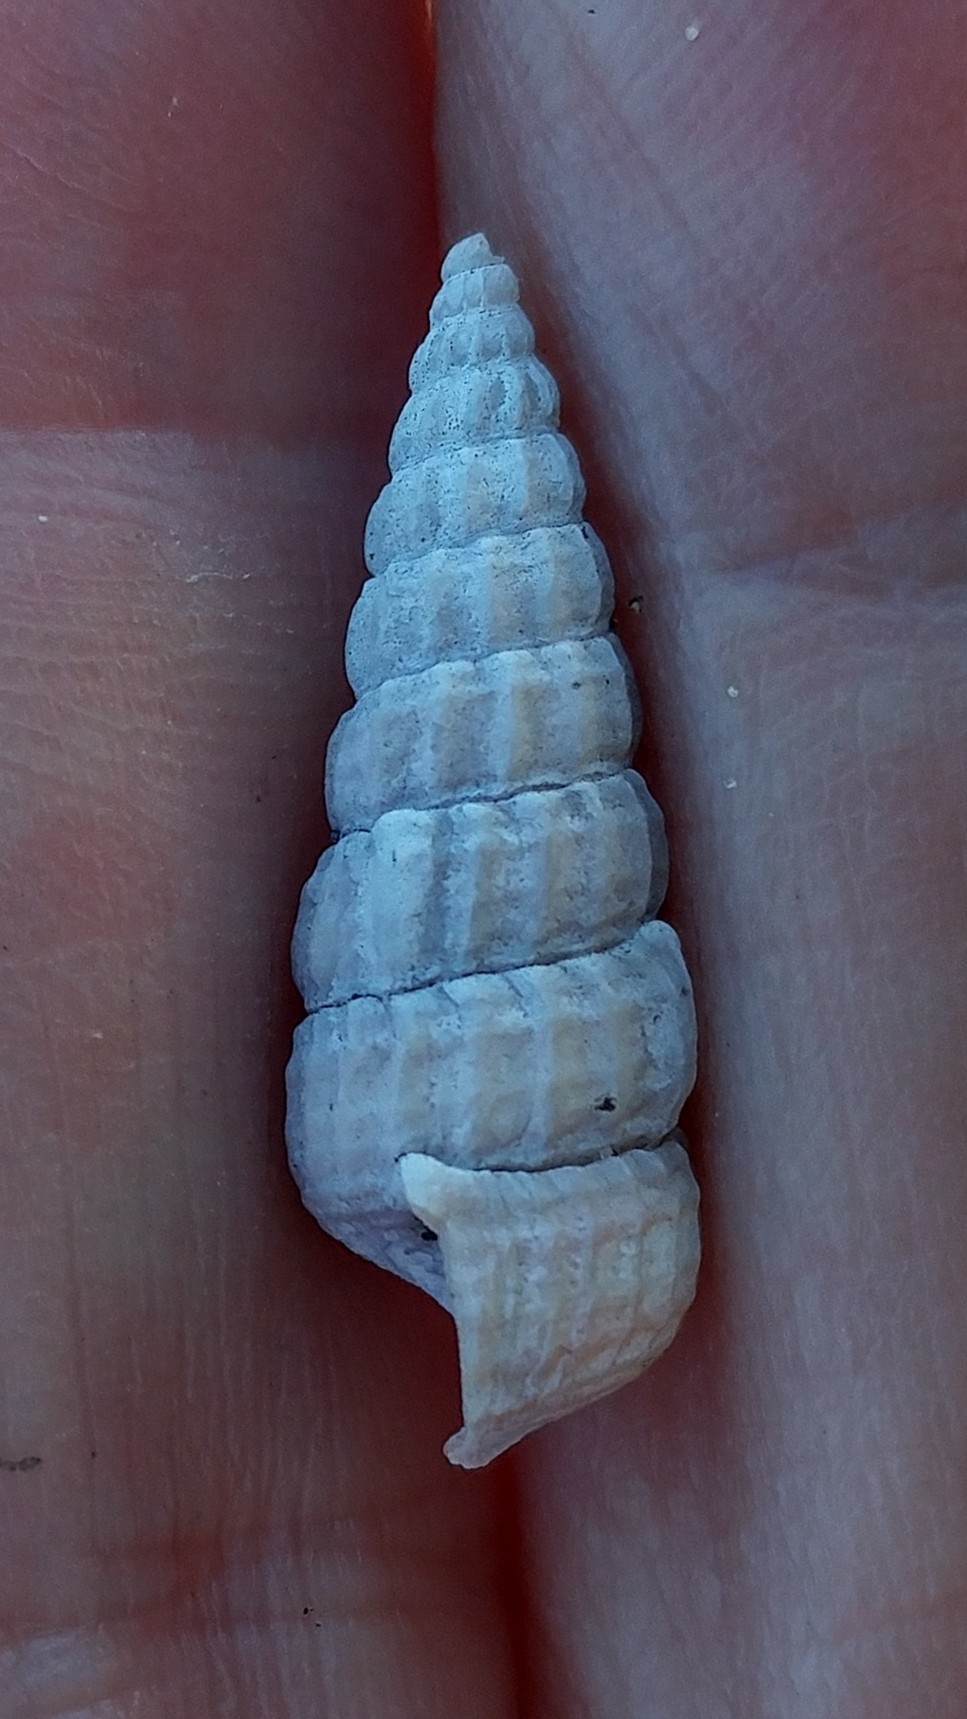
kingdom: Animalia
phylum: Mollusca
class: Gastropoda
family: Potamididae
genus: Cerithideopsis
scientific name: Cerithideopsis californica
